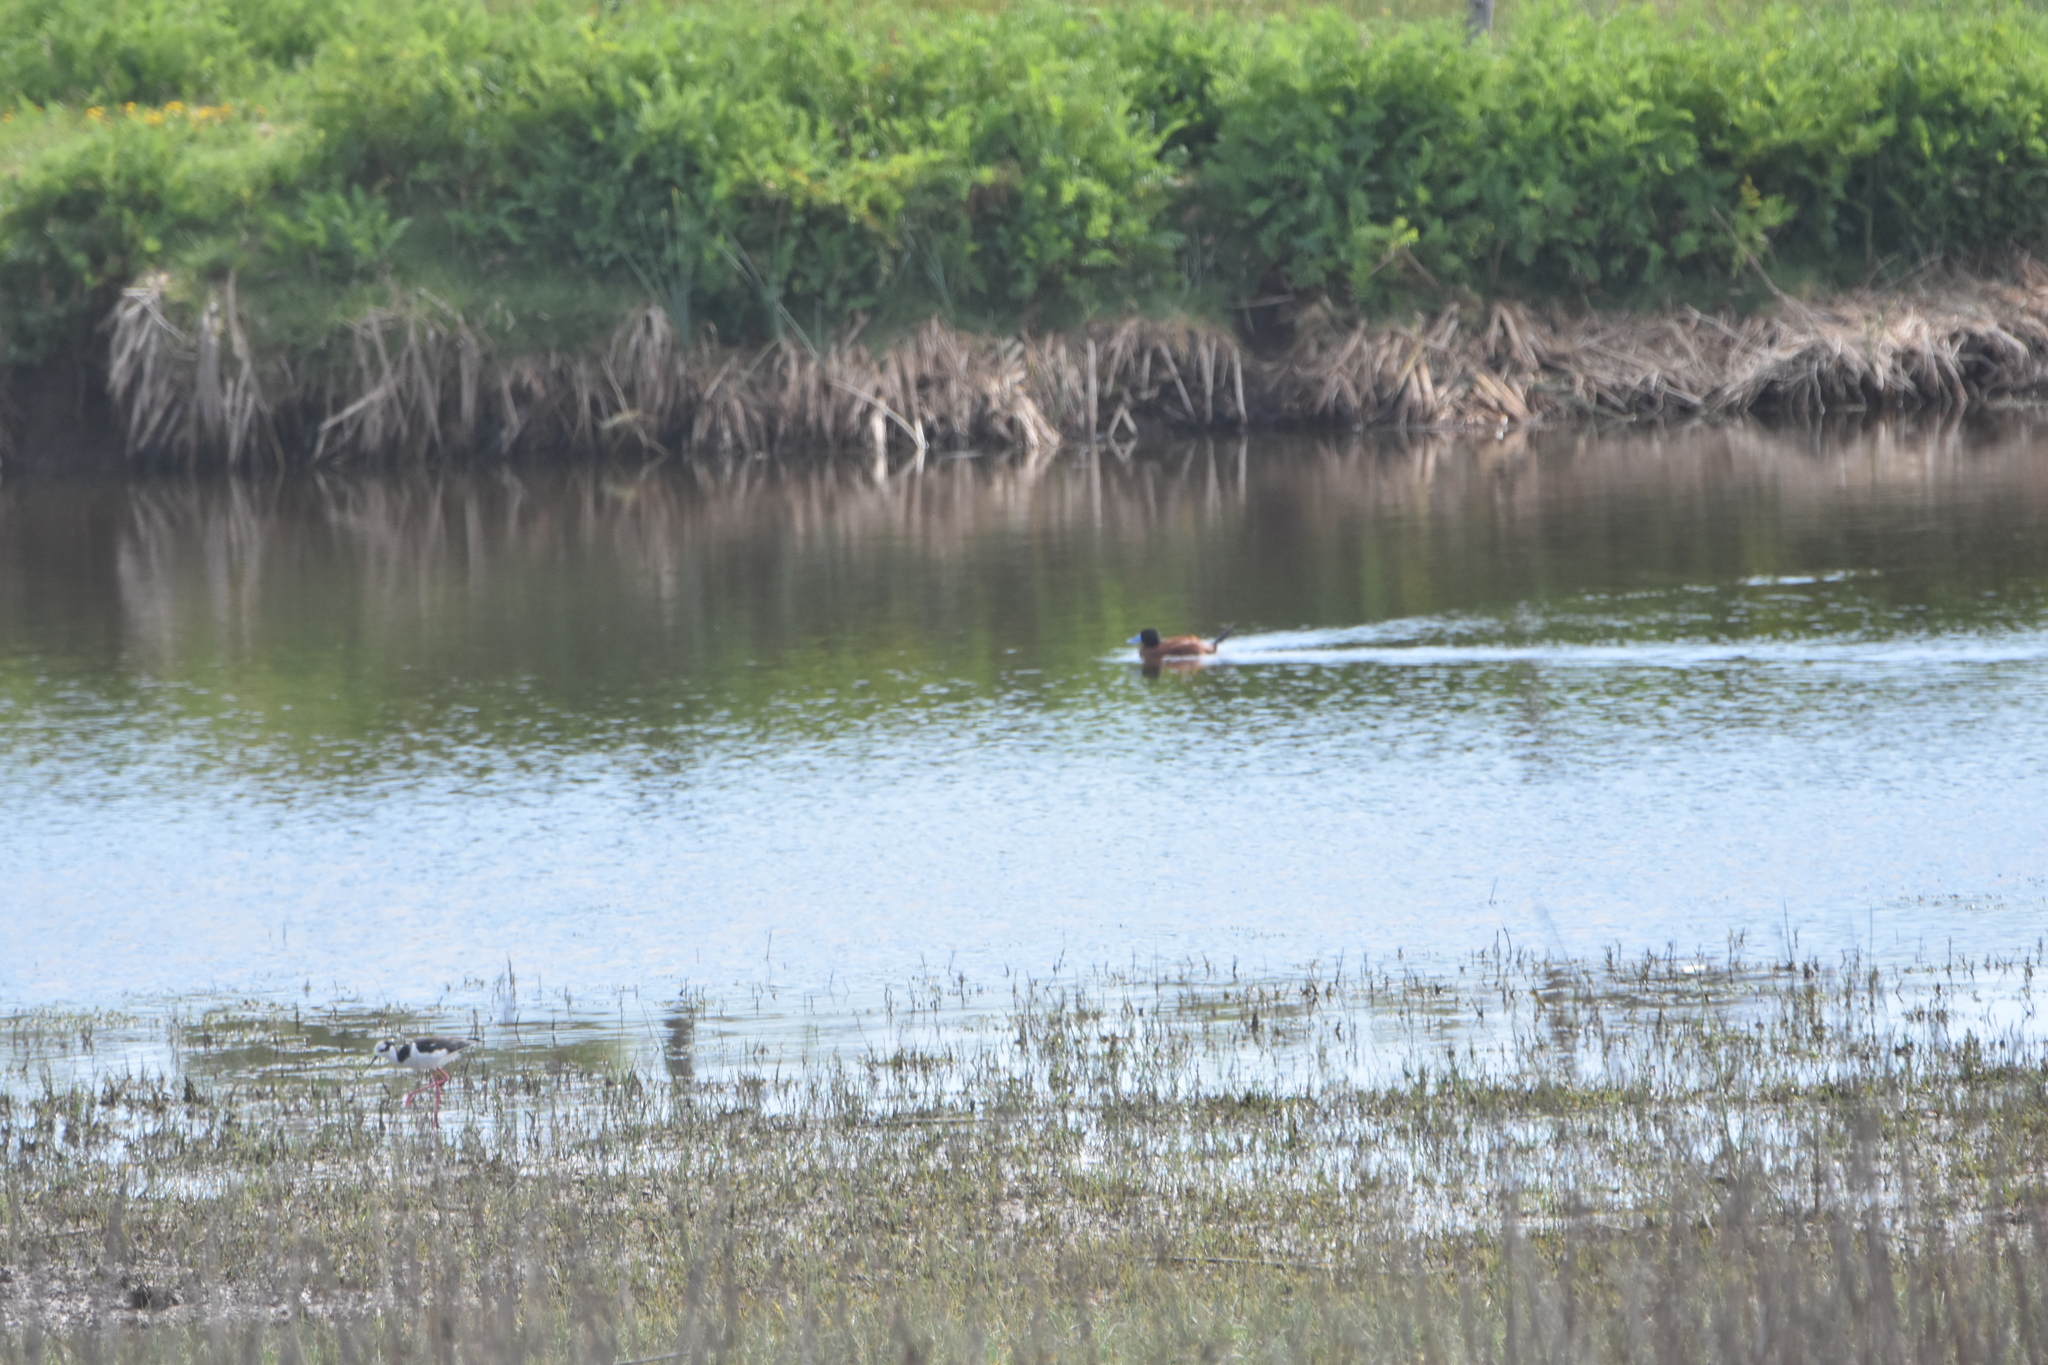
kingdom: Animalia
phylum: Chordata
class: Aves
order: Anseriformes
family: Anatidae
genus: Oxyura
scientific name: Oxyura ferruginea
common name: Andean duck
